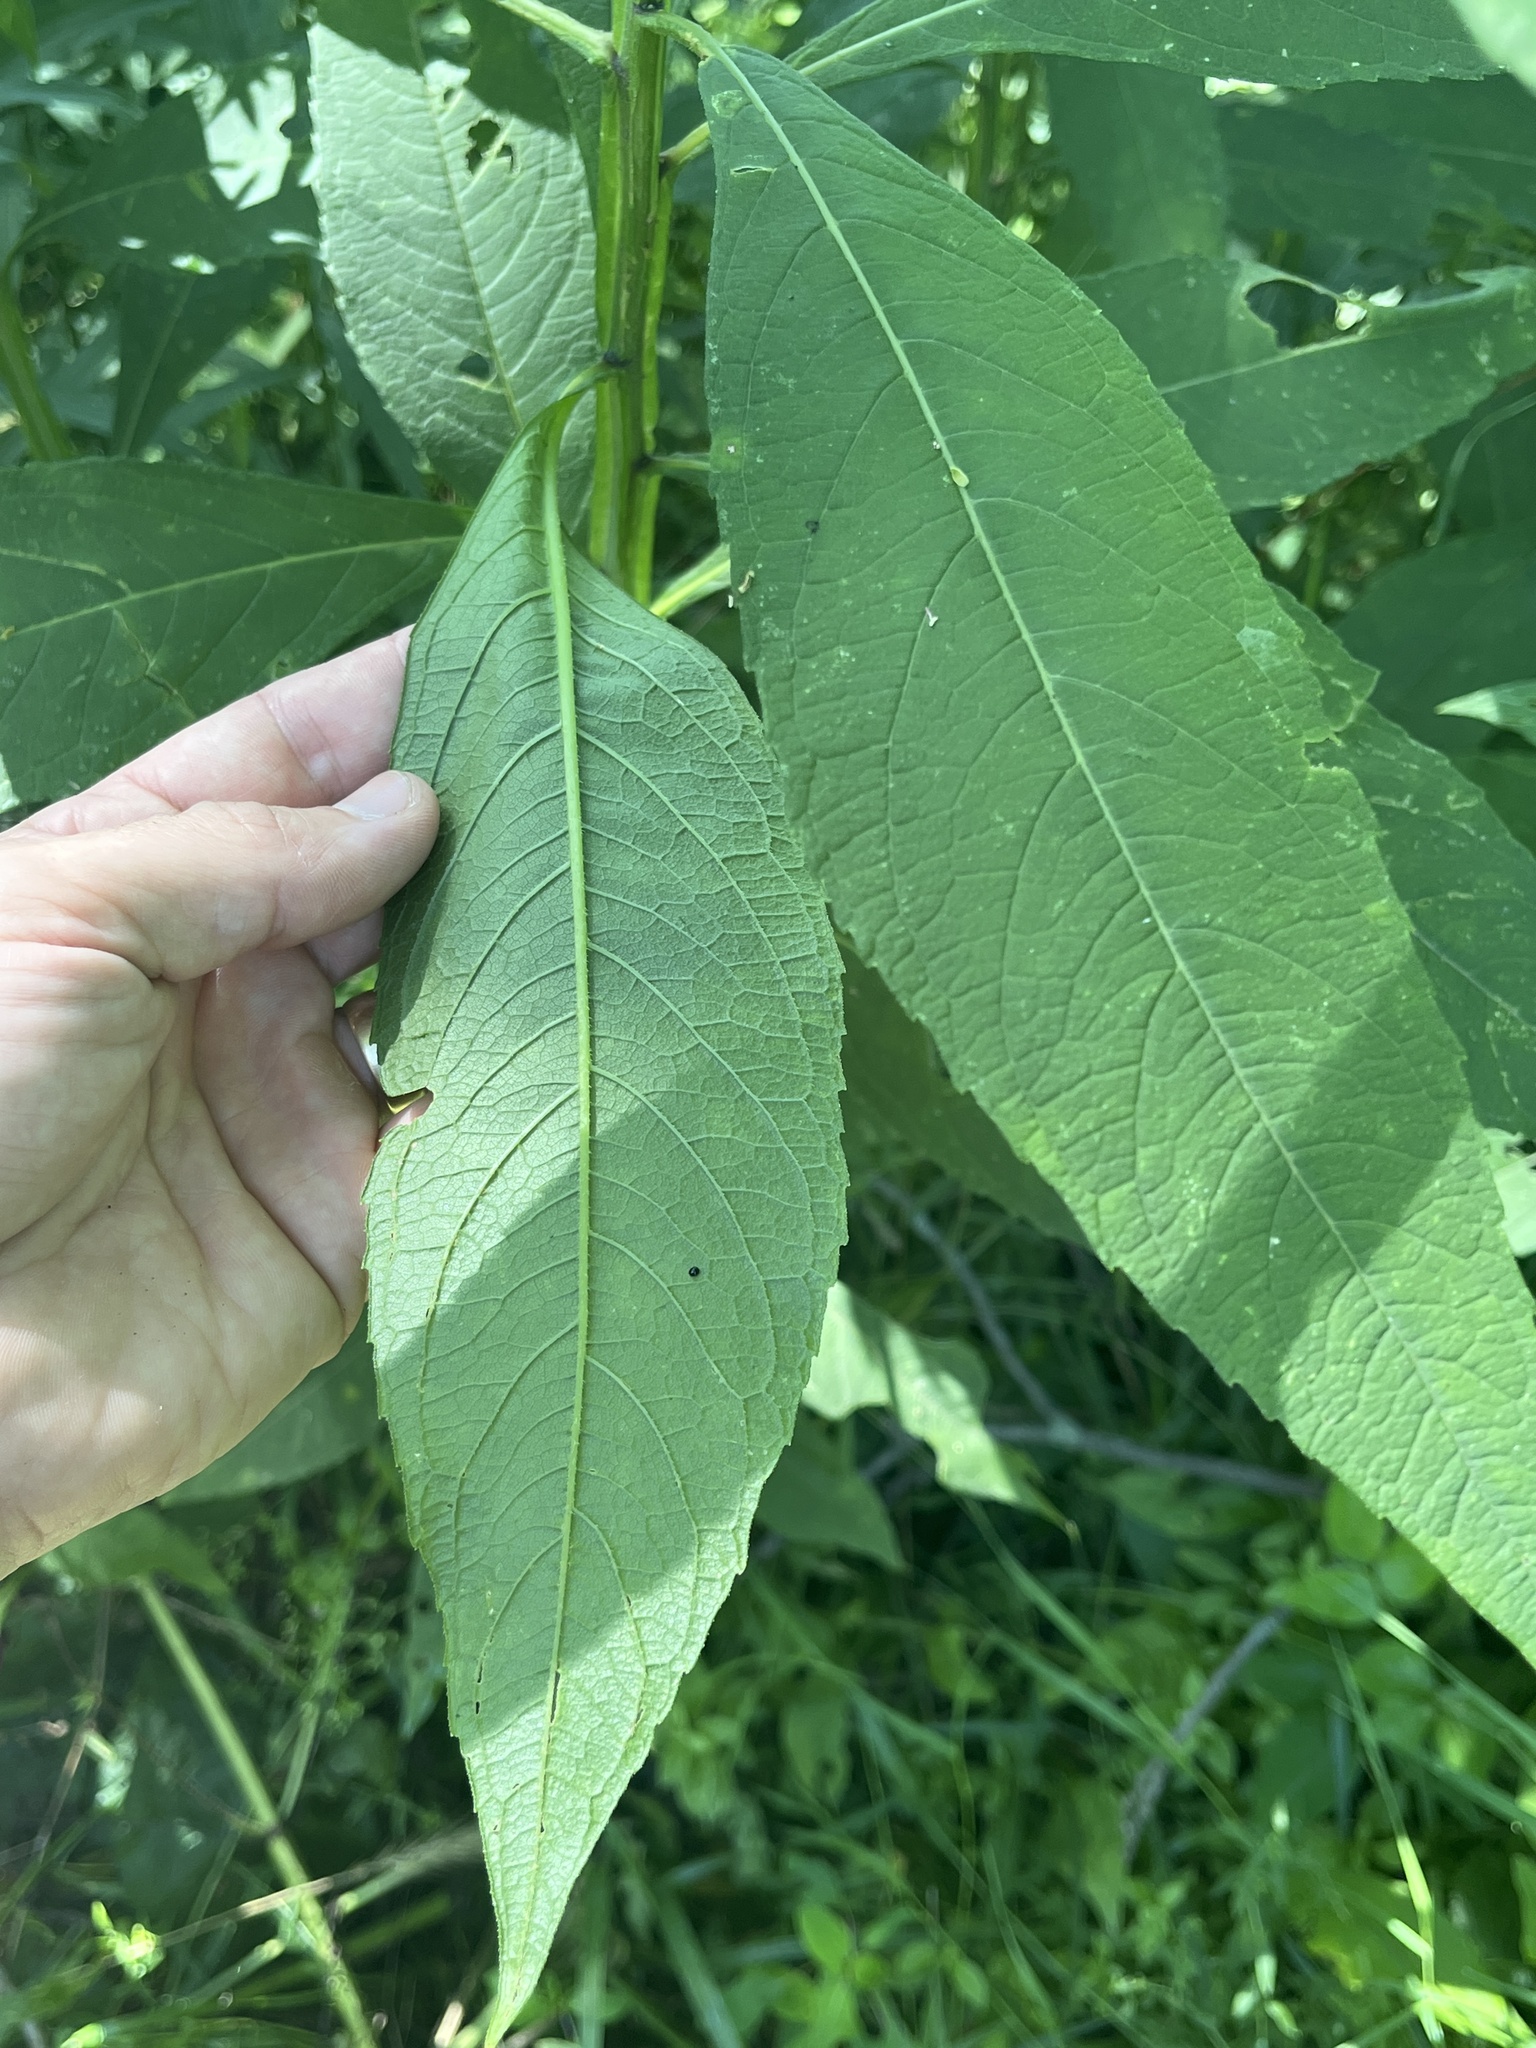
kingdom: Plantae
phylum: Tracheophyta
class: Magnoliopsida
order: Asterales
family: Asteraceae
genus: Verbesina
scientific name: Verbesina alternifolia
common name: Wingstem
